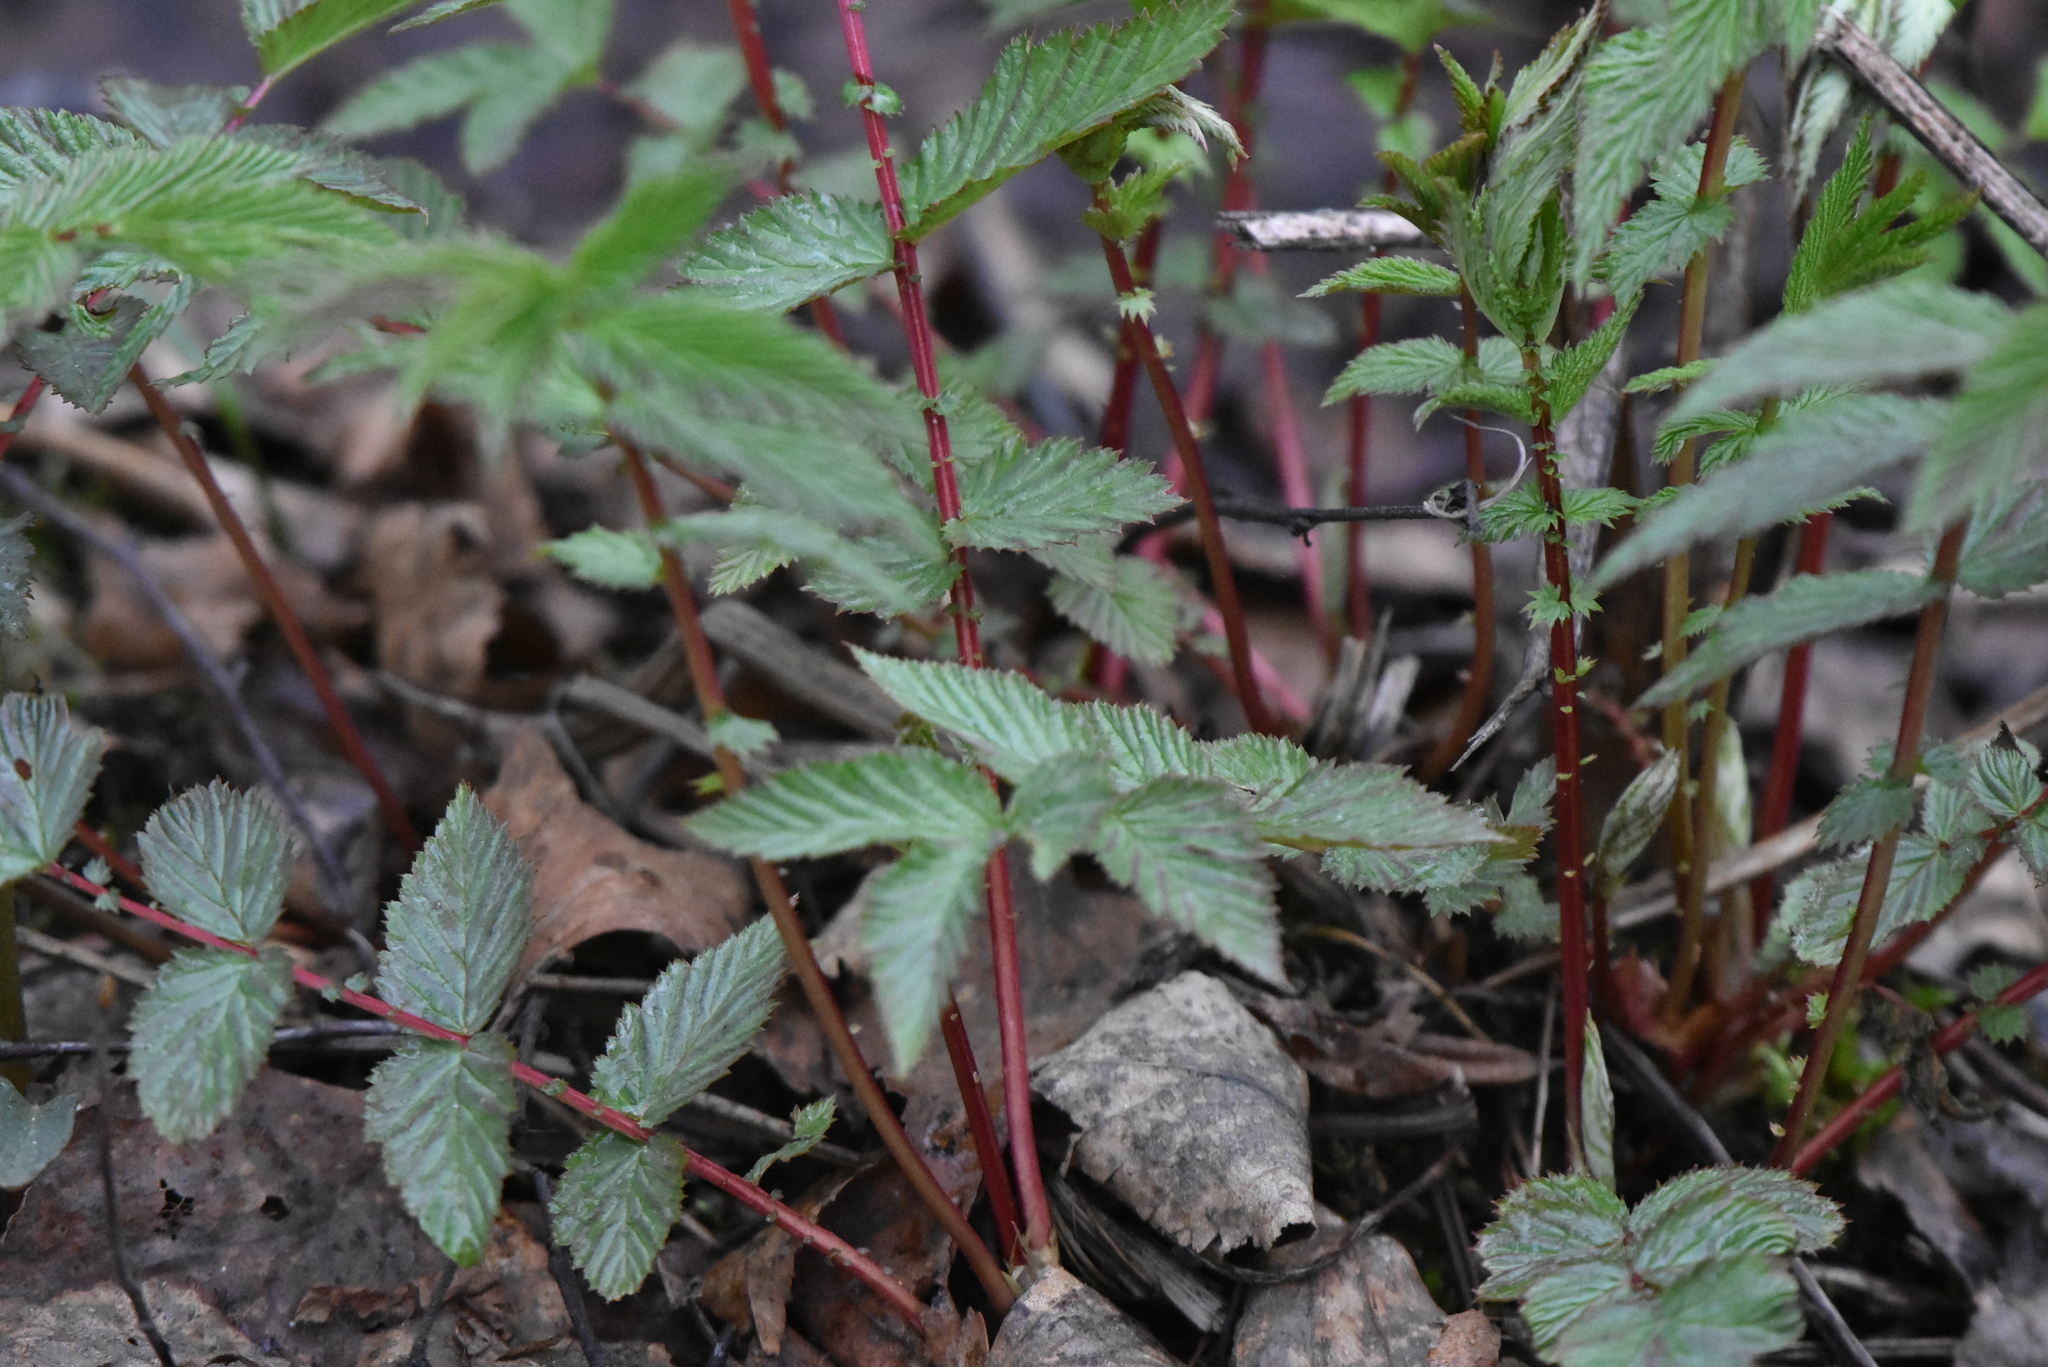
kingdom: Plantae
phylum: Tracheophyta
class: Magnoliopsida
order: Rosales
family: Rosaceae
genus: Filipendula
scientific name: Filipendula ulmaria
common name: Meadowsweet
